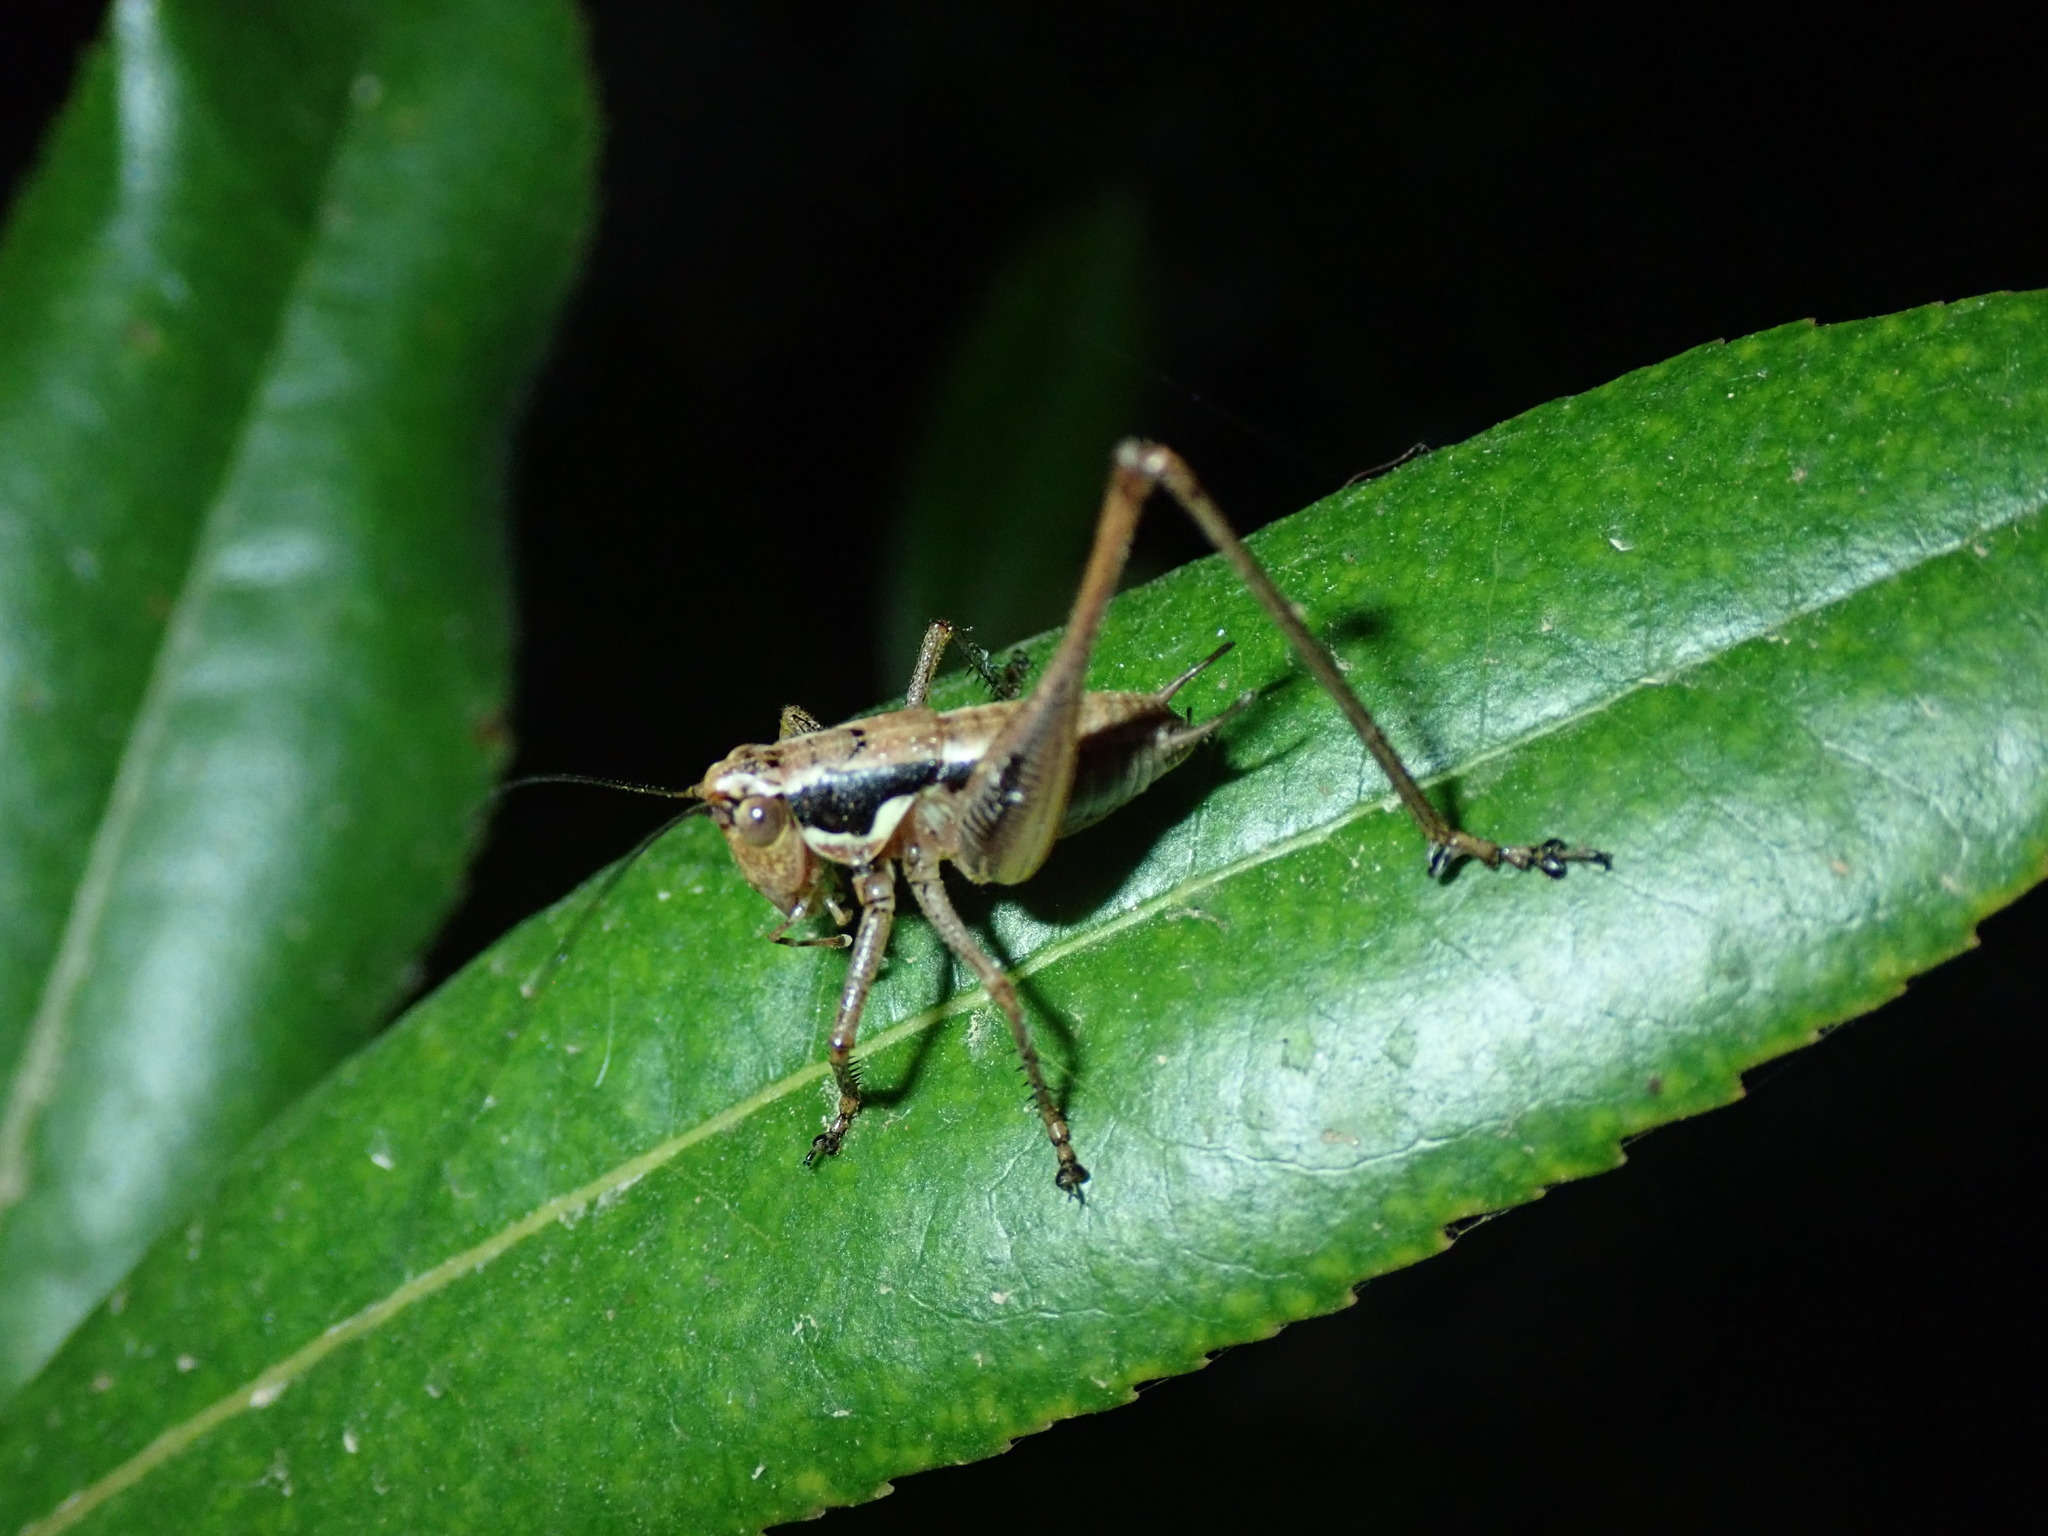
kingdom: Animalia
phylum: Arthropoda
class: Insecta
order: Orthoptera
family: Tettigoniidae
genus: Pachytrachis
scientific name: Pachytrachis frater
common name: Monk bush-cricket
